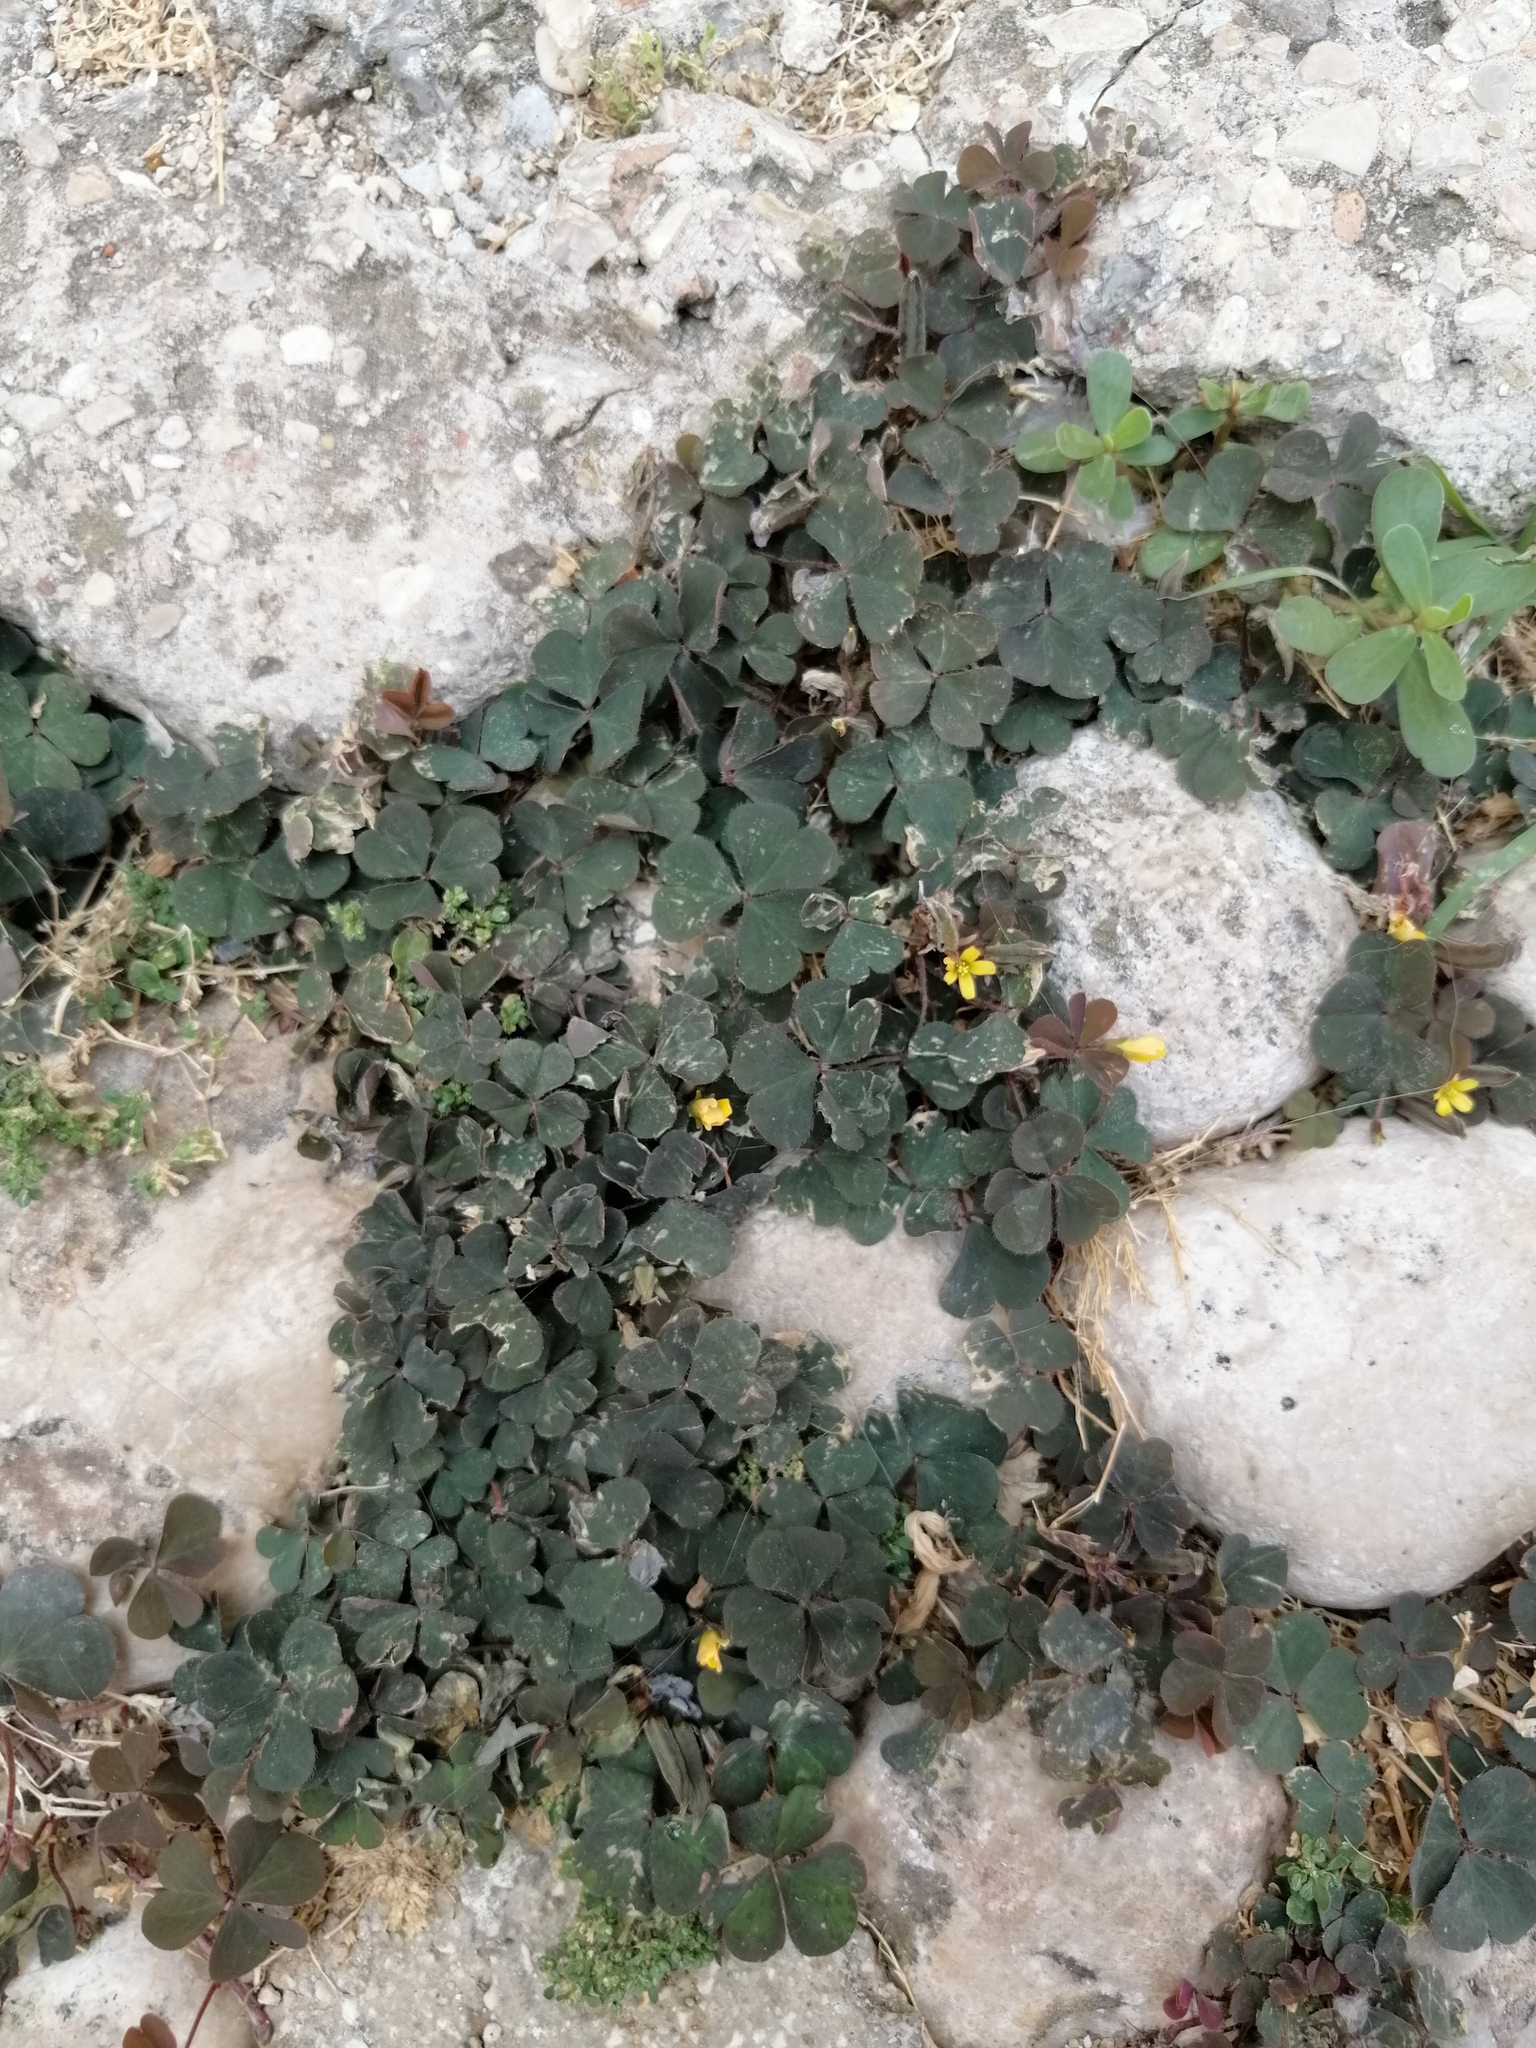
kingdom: Plantae
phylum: Tracheophyta
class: Magnoliopsida
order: Oxalidales
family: Oxalidaceae
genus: Oxalis
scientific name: Oxalis corniculata
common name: Procumbent yellow-sorrel
